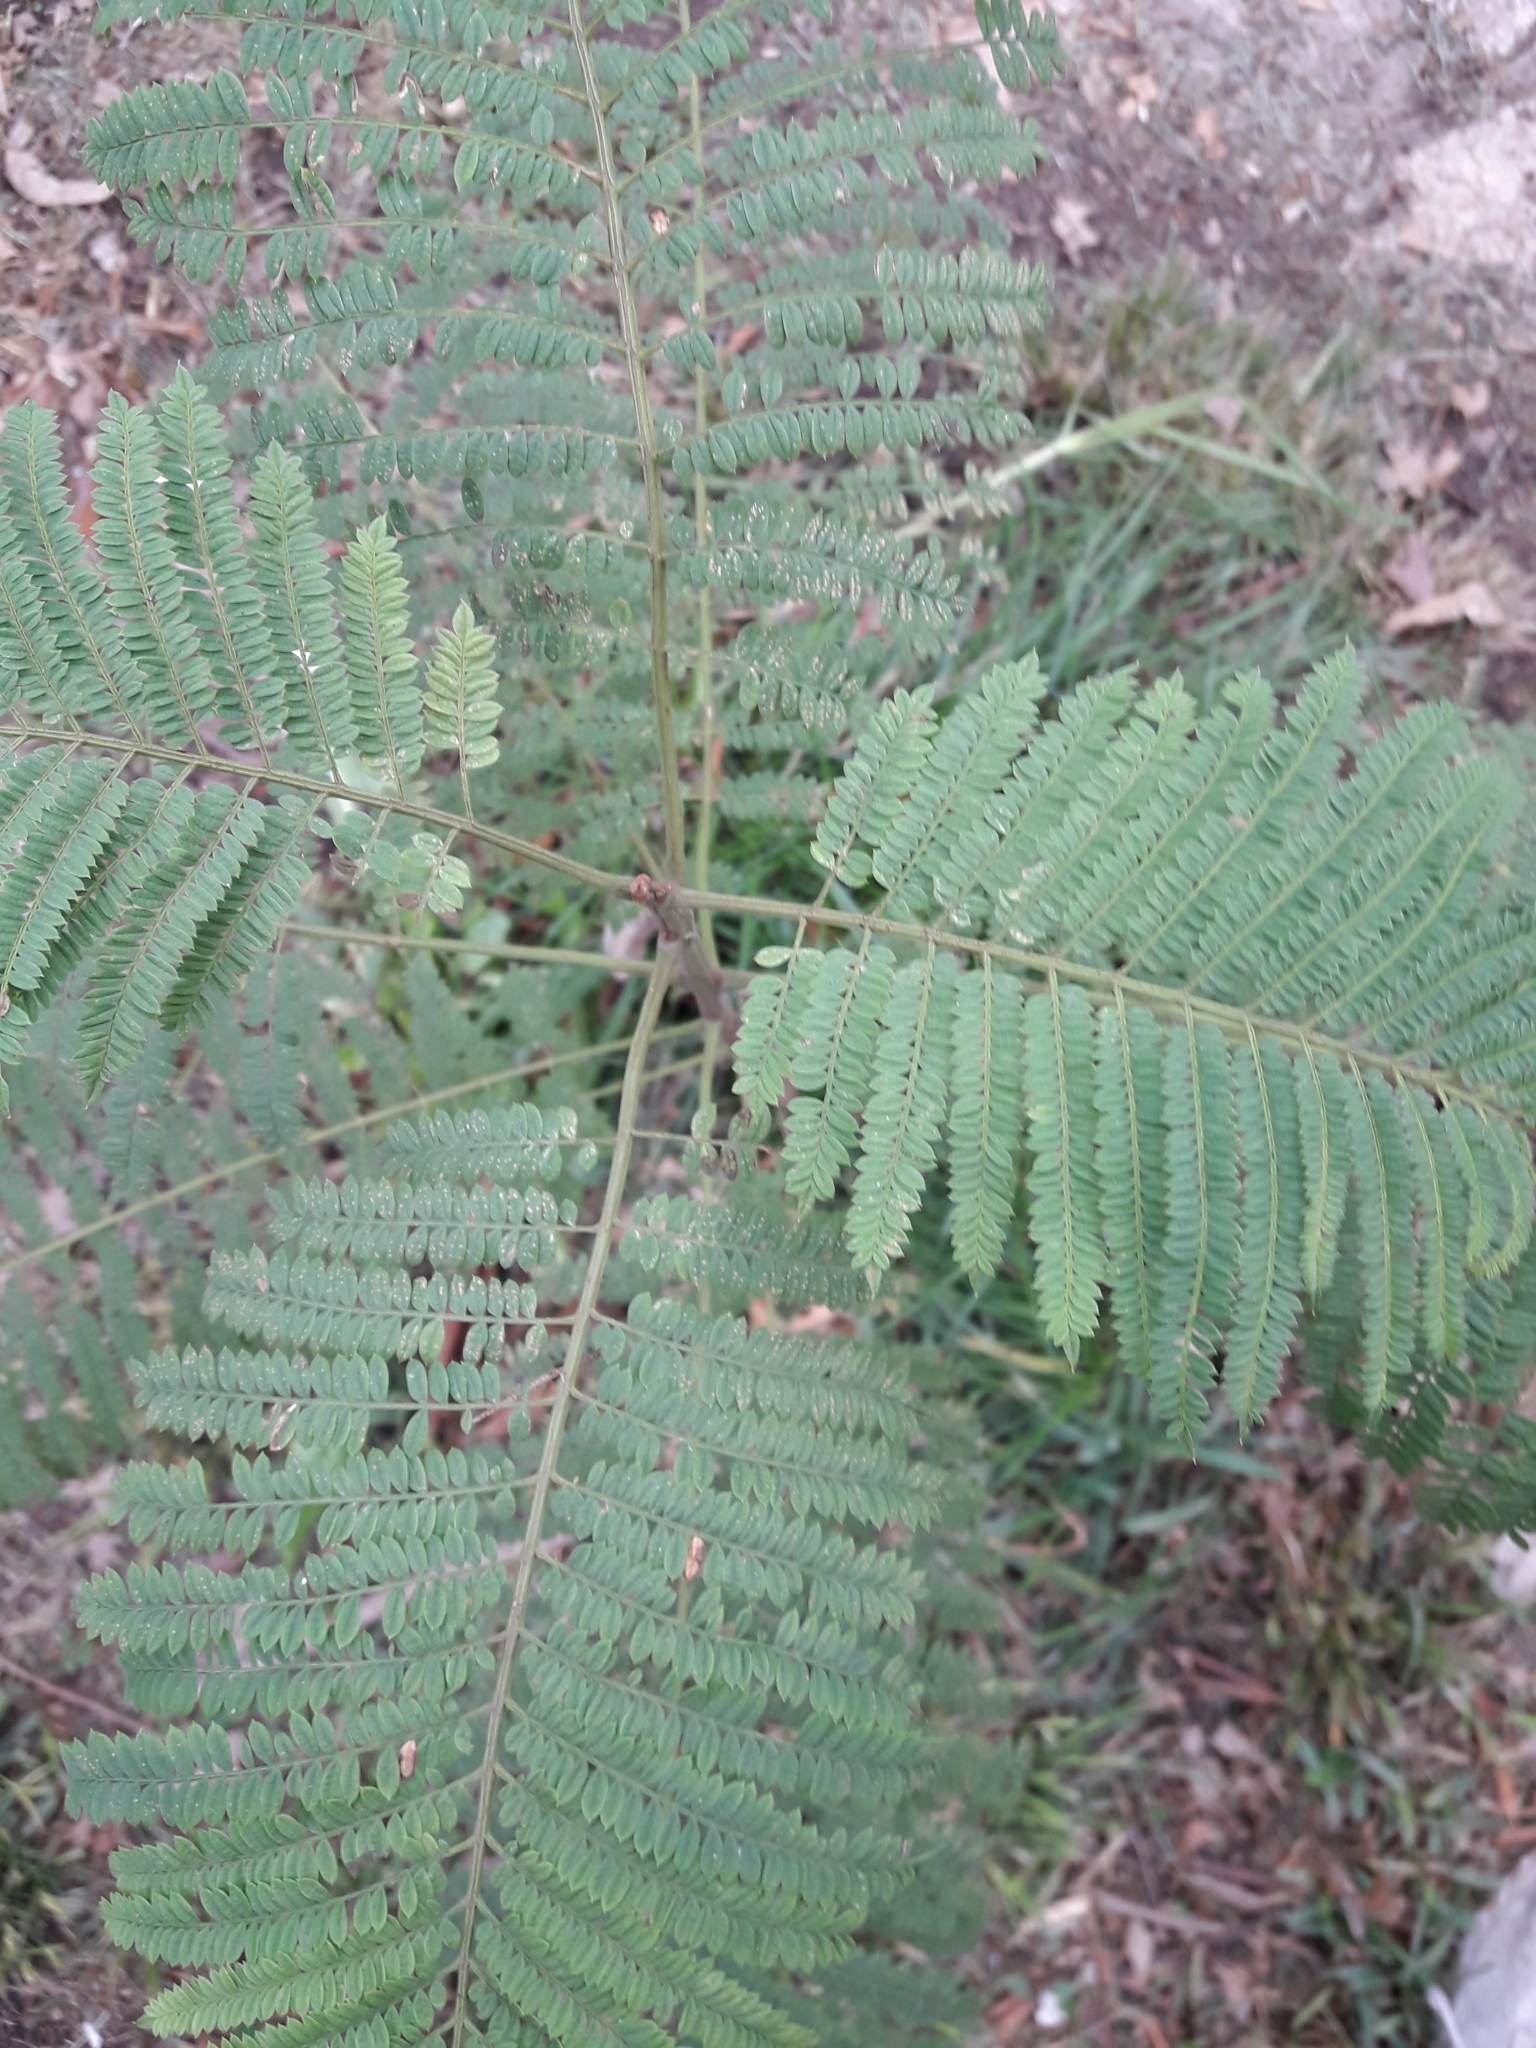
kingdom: Plantae
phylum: Tracheophyta
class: Magnoliopsida
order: Lamiales
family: Bignoniaceae
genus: Jacaranda
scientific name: Jacaranda mimosifolia
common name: Black poui
